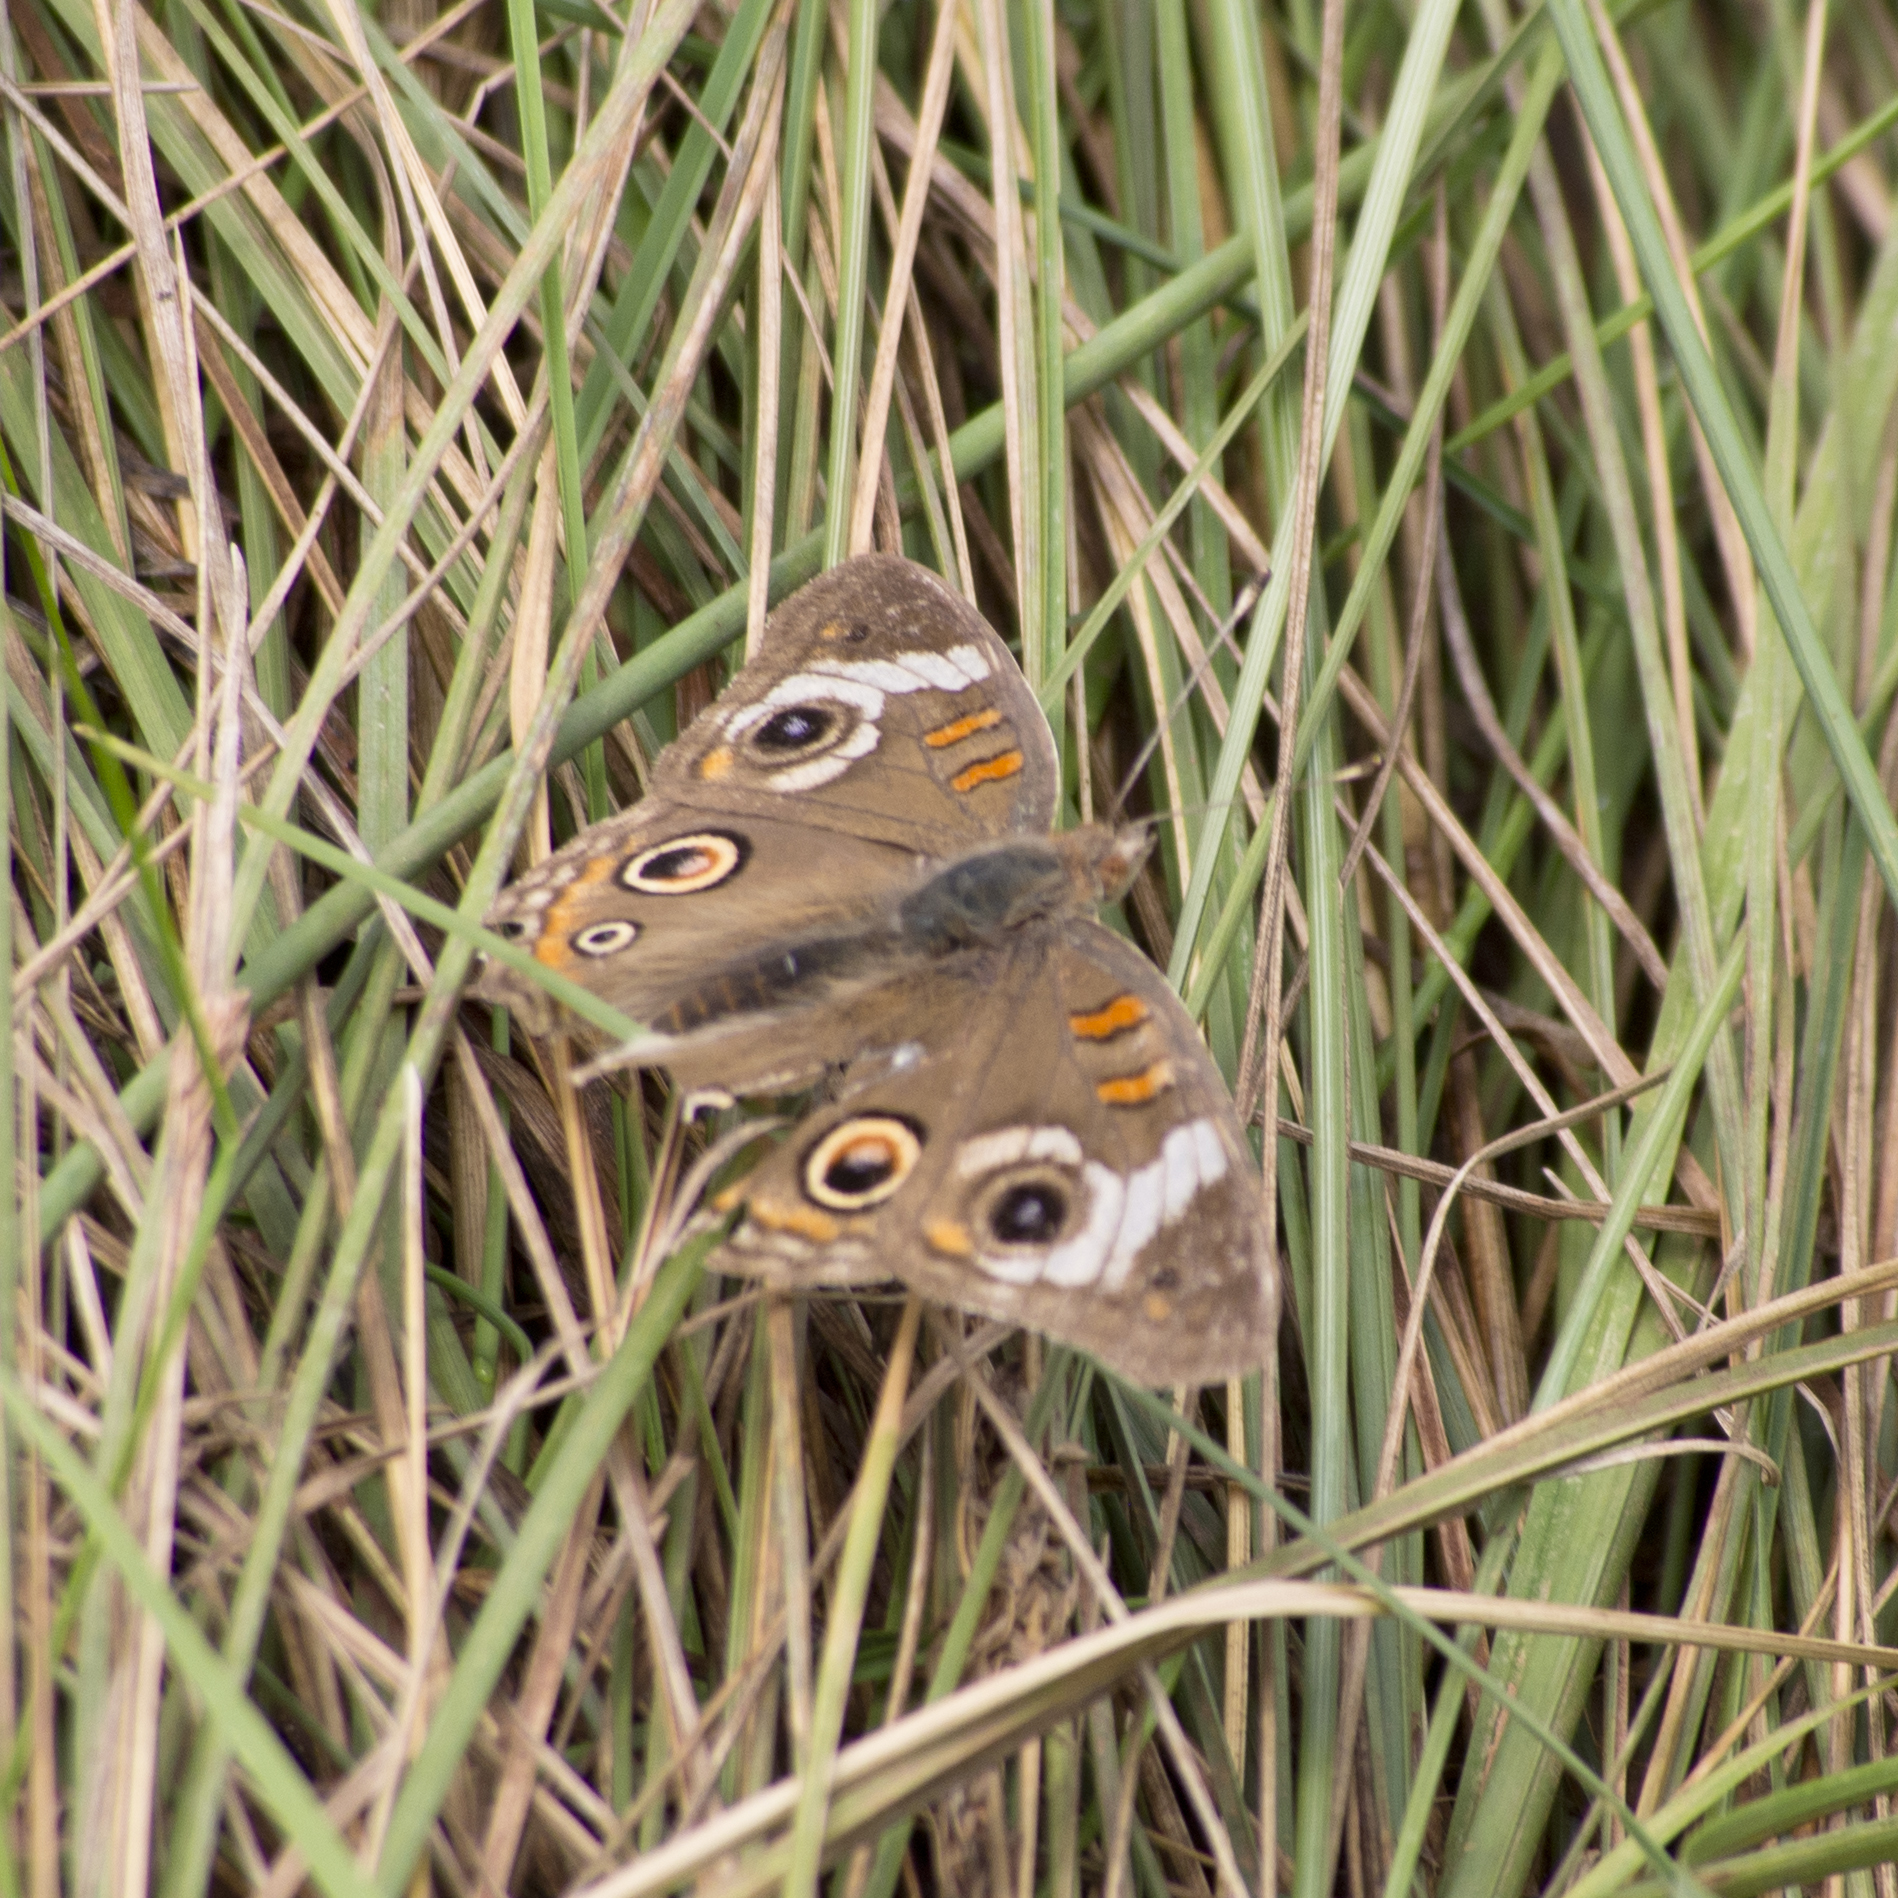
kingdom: Animalia
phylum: Arthropoda
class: Insecta
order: Lepidoptera
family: Nymphalidae
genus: Junonia
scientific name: Junonia grisea
